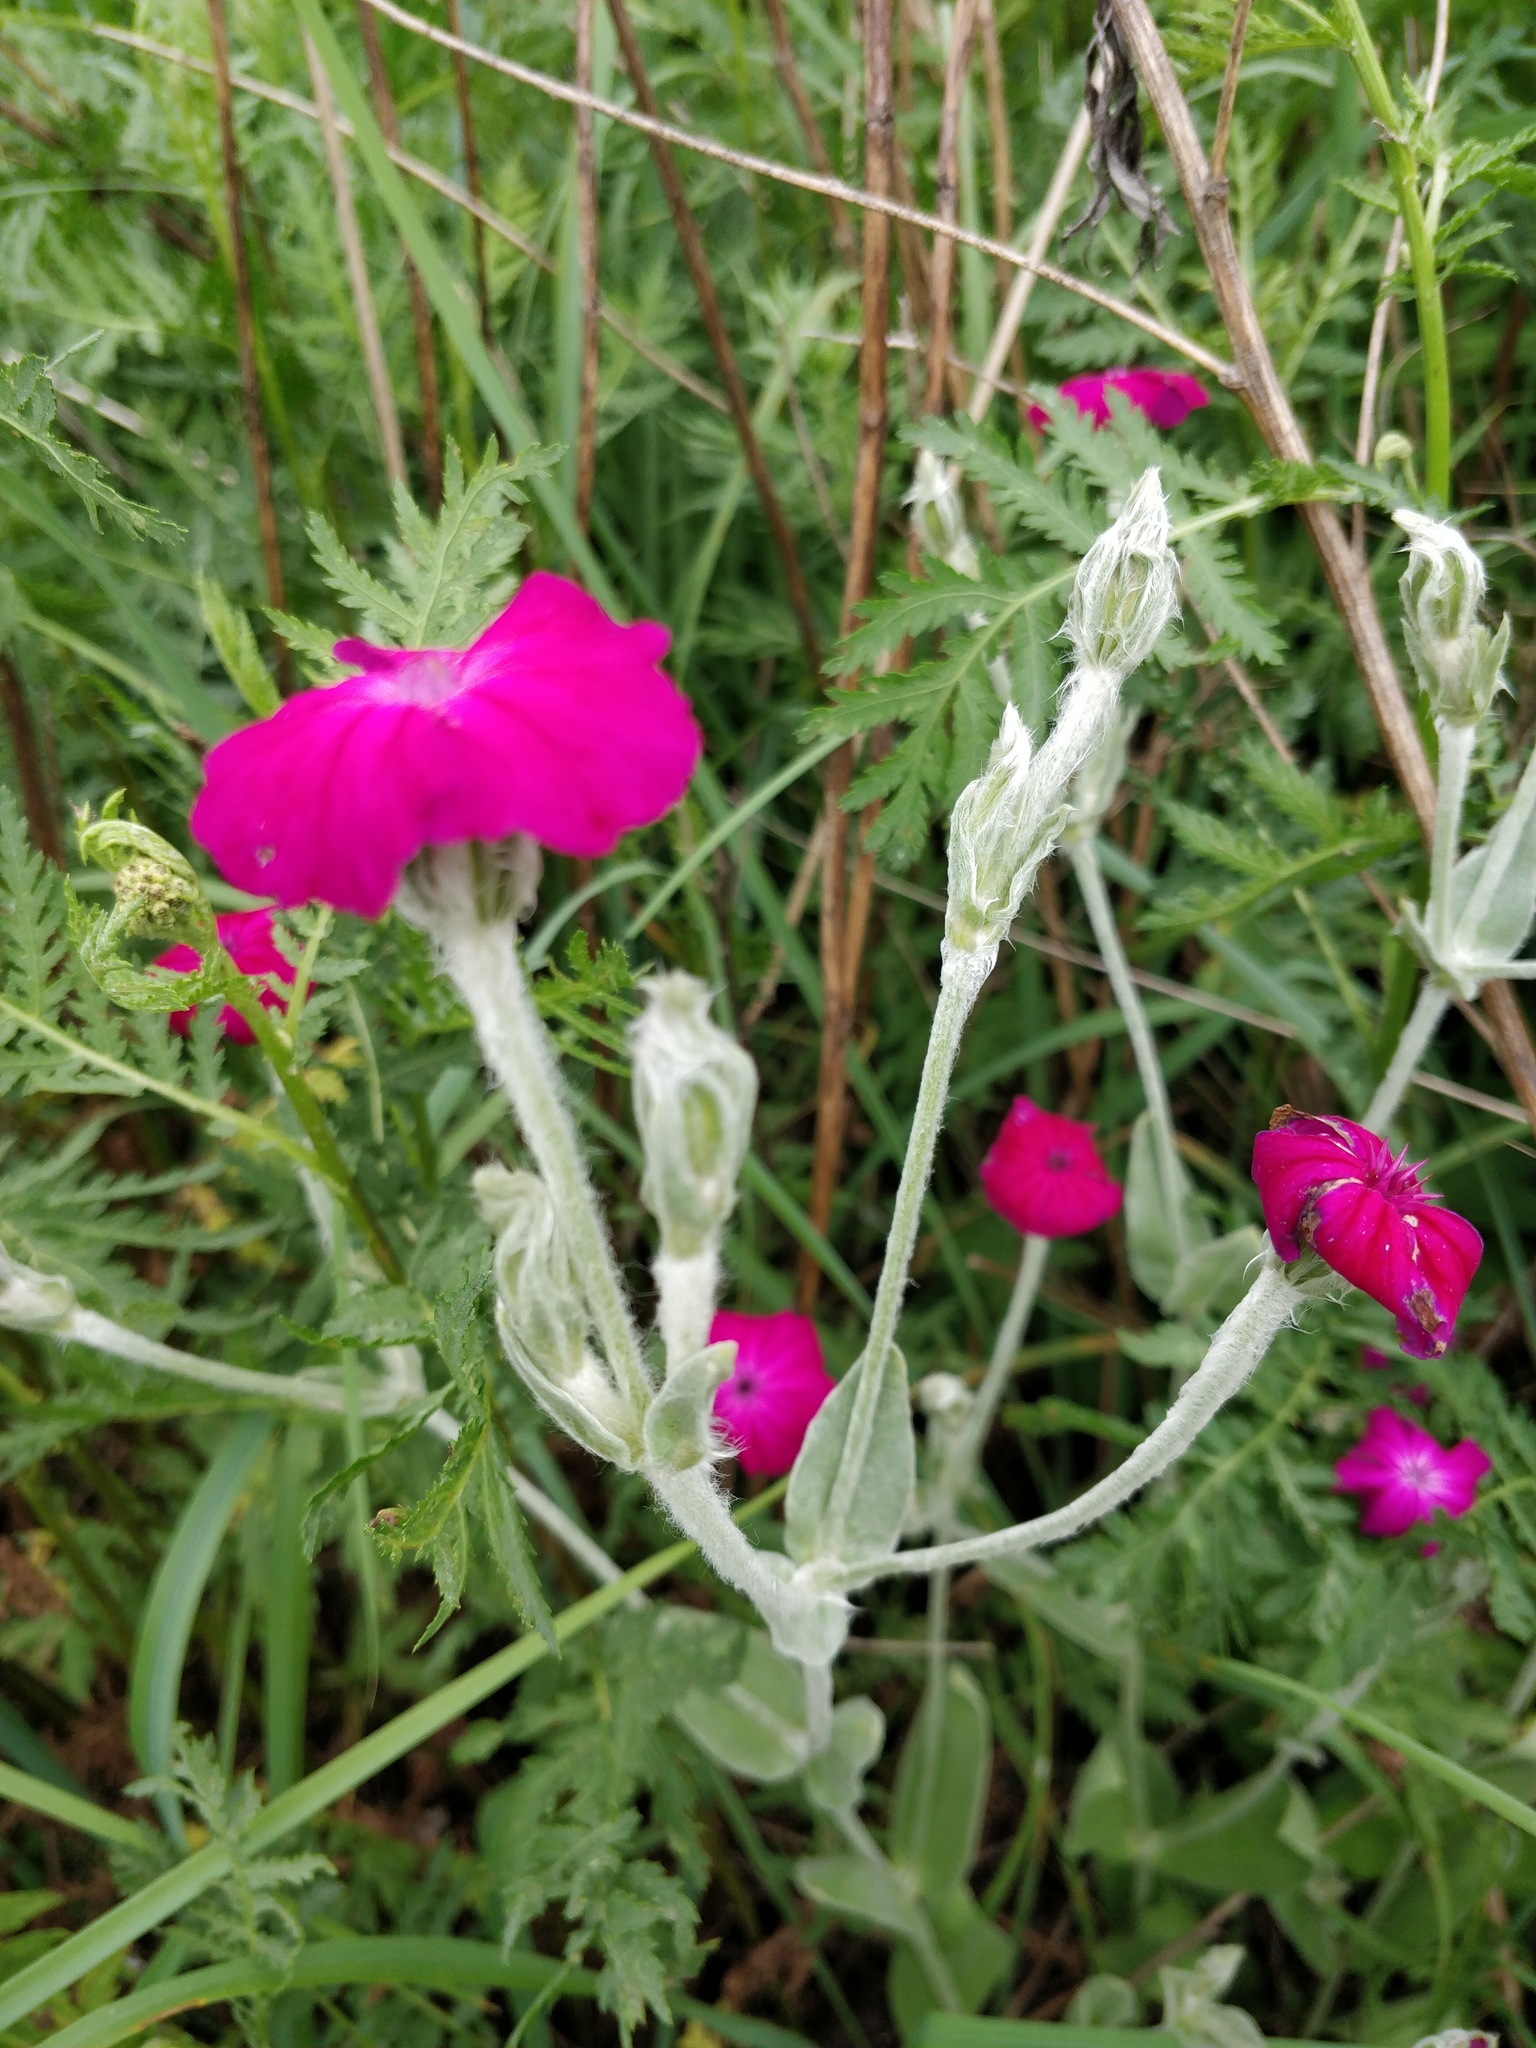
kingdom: Plantae
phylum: Tracheophyta
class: Magnoliopsida
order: Caryophyllales
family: Caryophyllaceae
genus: Silene
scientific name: Silene coronaria
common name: Rose campion
